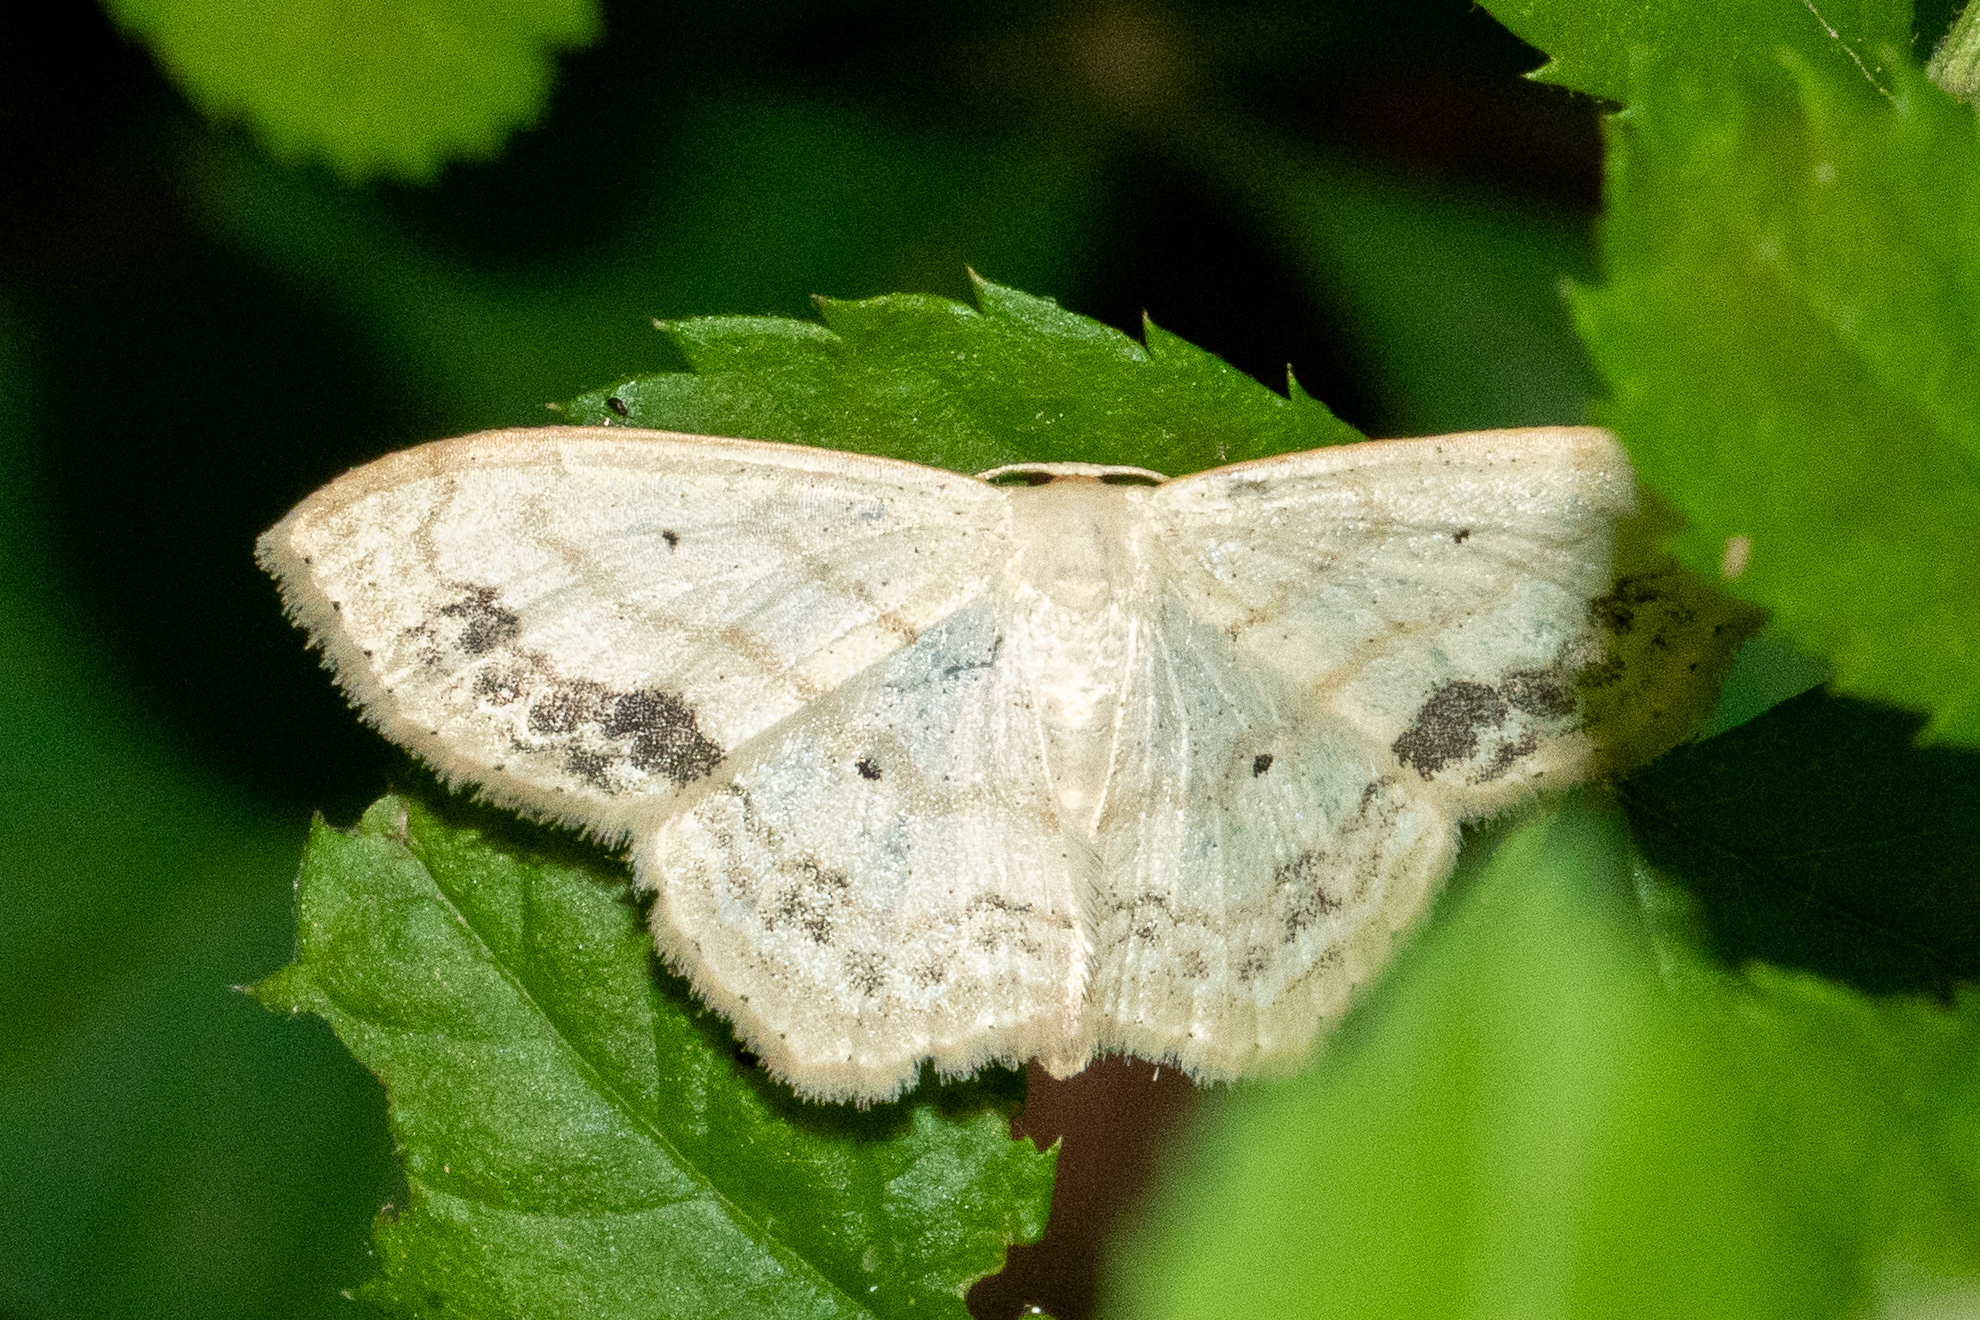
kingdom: Animalia
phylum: Arthropoda
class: Insecta
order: Lepidoptera
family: Geometridae
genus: Scopula
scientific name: Scopula limboundata
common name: Large lace border
